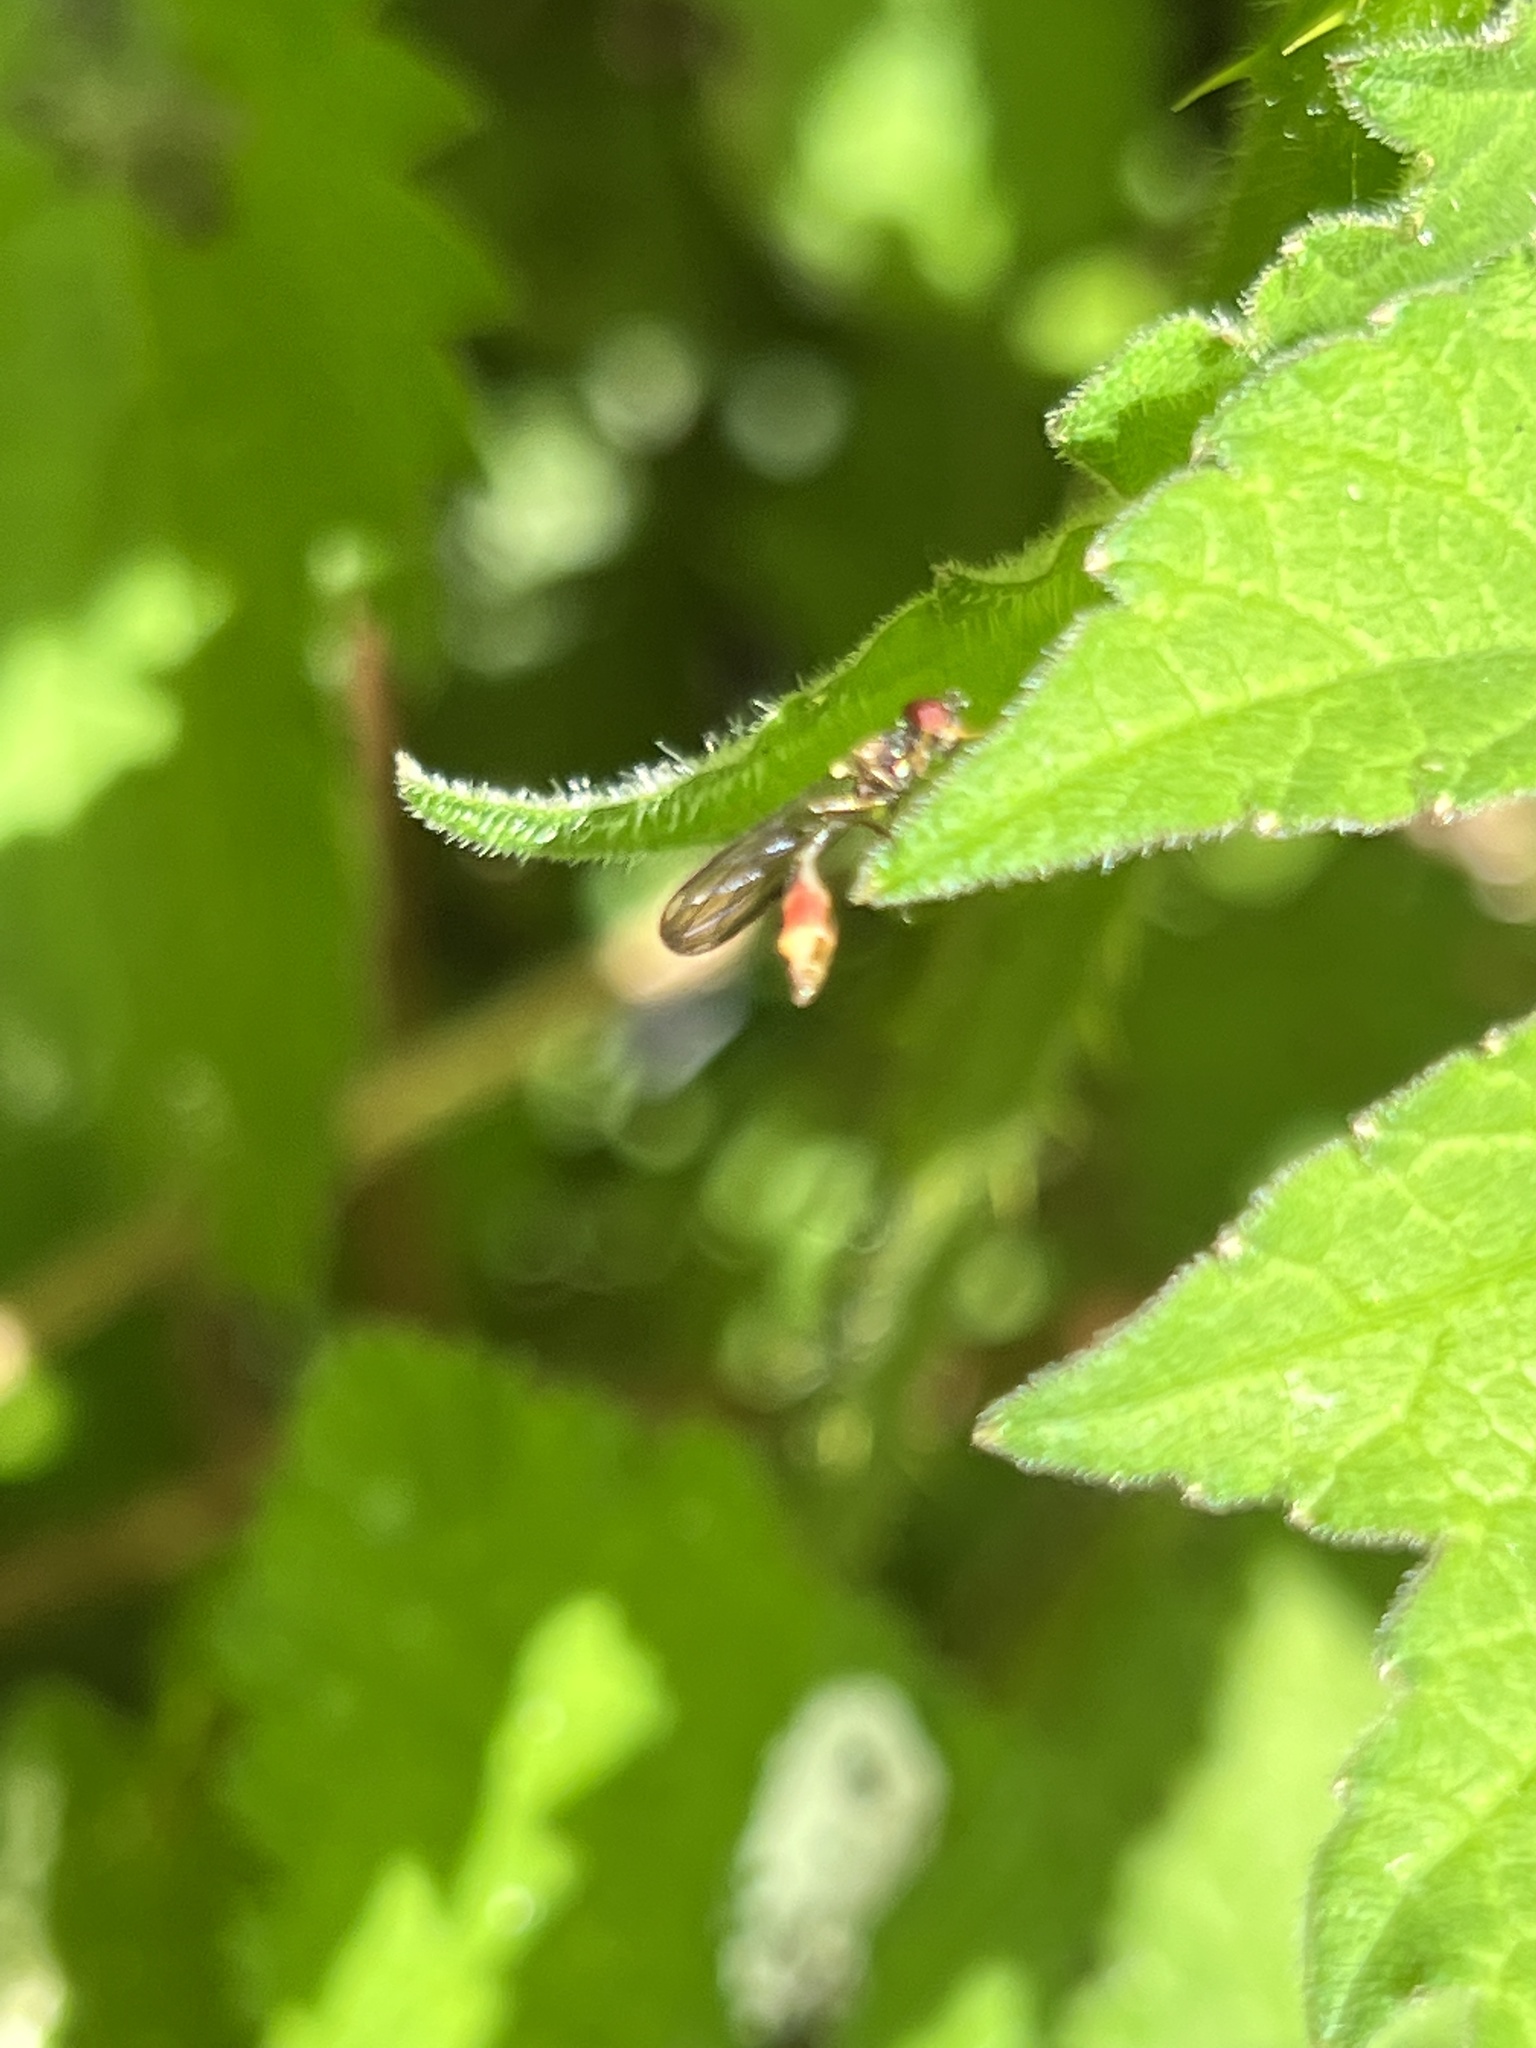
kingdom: Animalia
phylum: Arthropoda
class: Insecta
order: Diptera
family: Syrphidae
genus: Baccha
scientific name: Baccha elongata
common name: Common dainty
